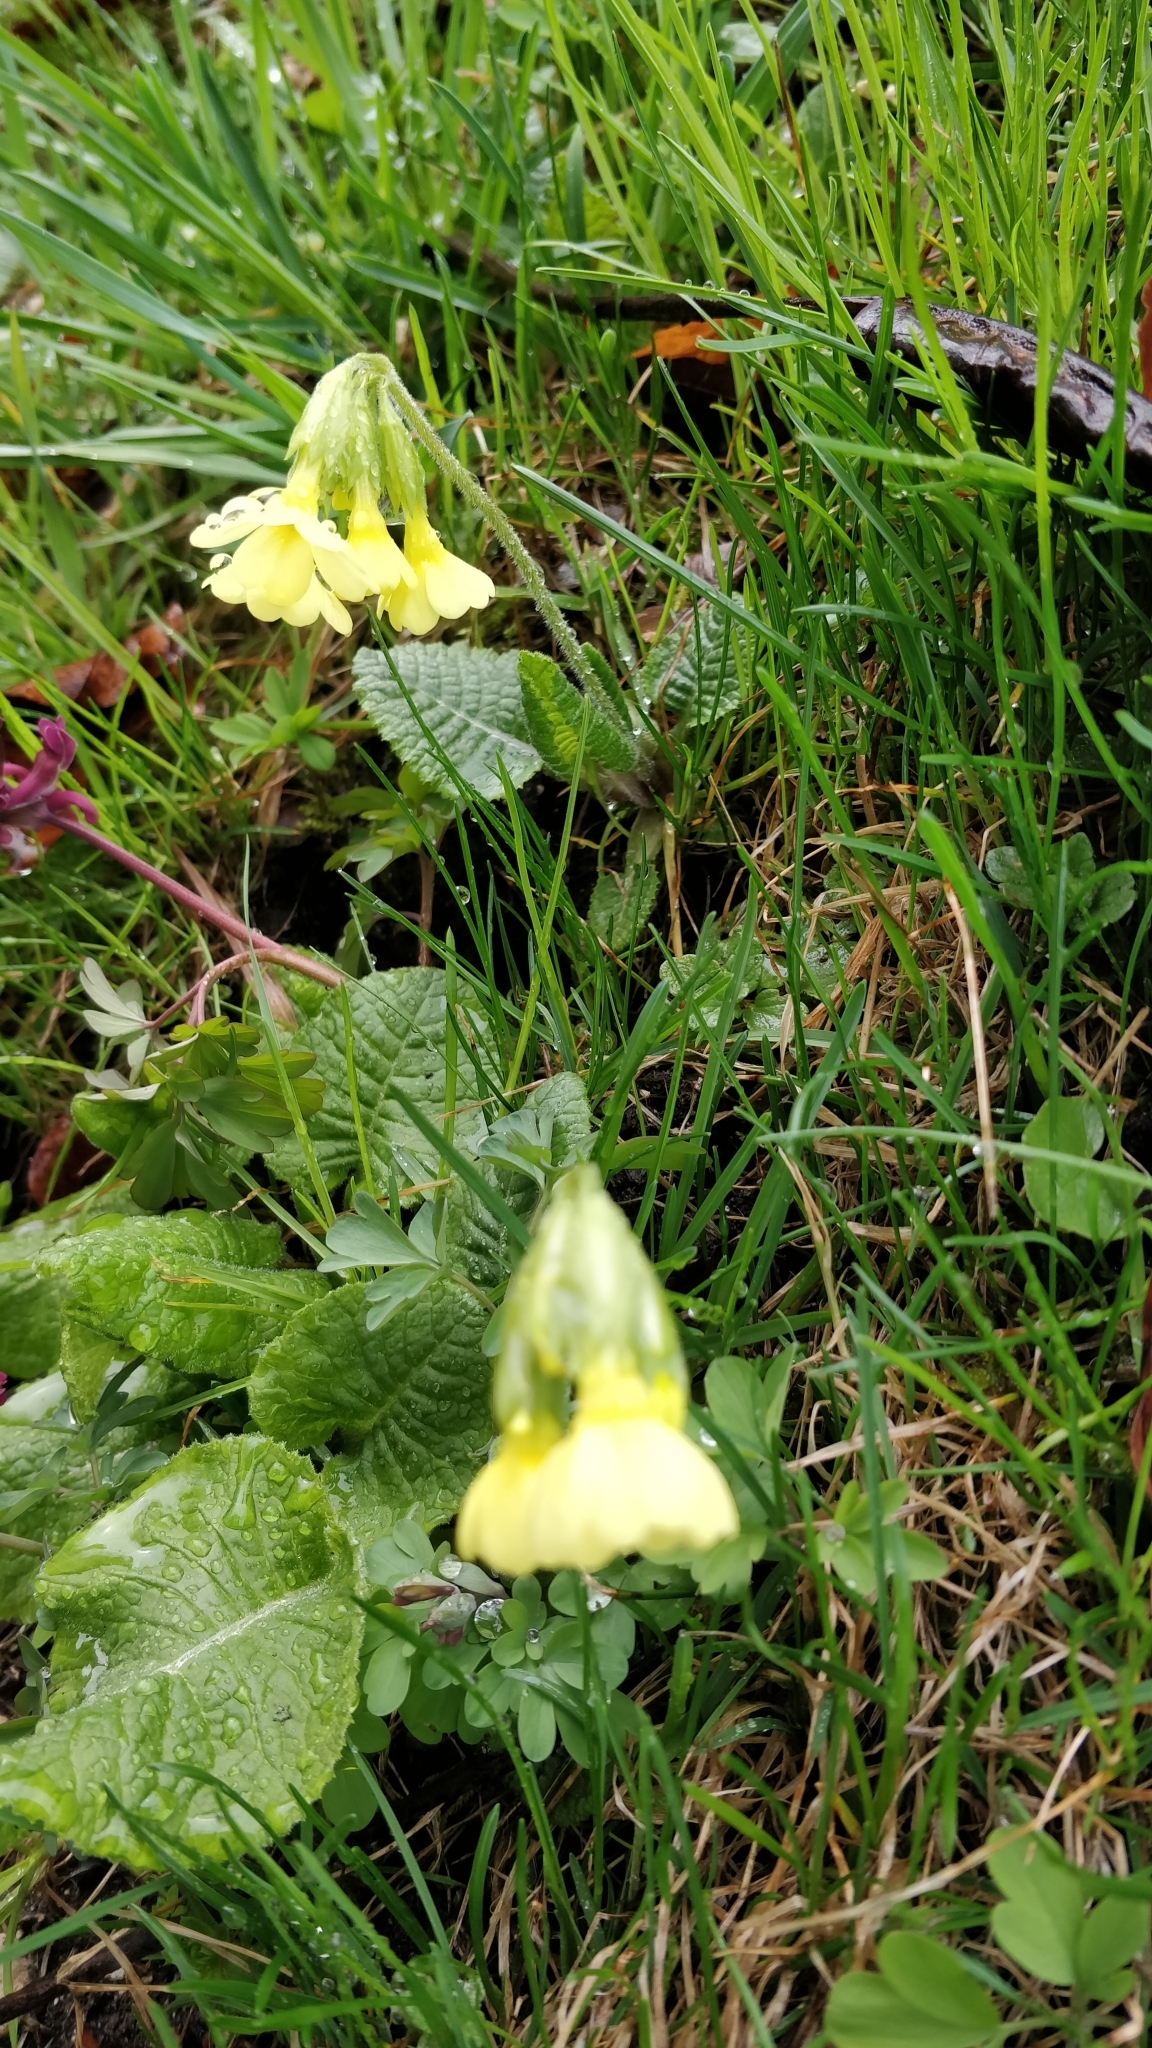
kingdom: Plantae
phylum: Tracheophyta
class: Magnoliopsida
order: Ericales
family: Primulaceae
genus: Primula
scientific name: Primula elatior
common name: Oxlip
